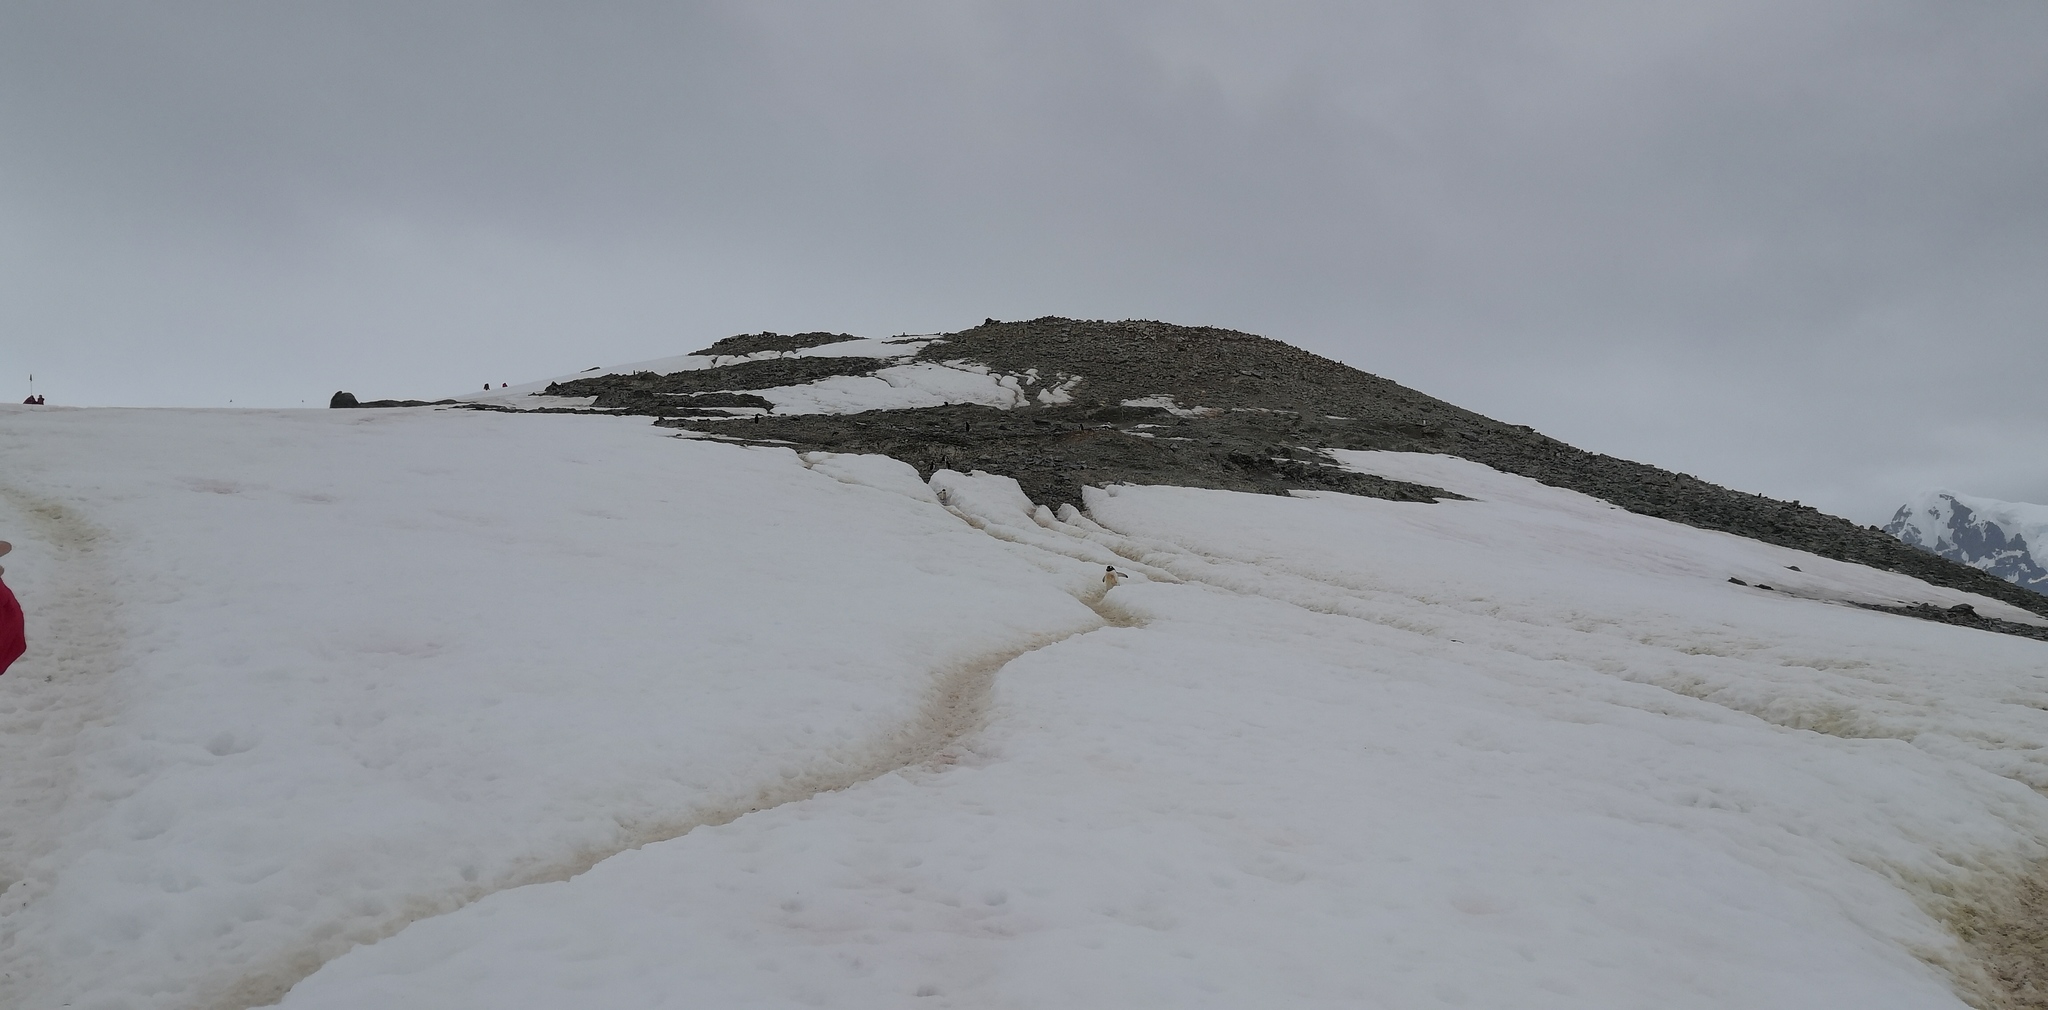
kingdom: Animalia
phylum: Chordata
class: Aves
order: Sphenisciformes
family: Spheniscidae
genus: Pygoscelis
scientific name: Pygoscelis papua
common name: Gentoo penguin
